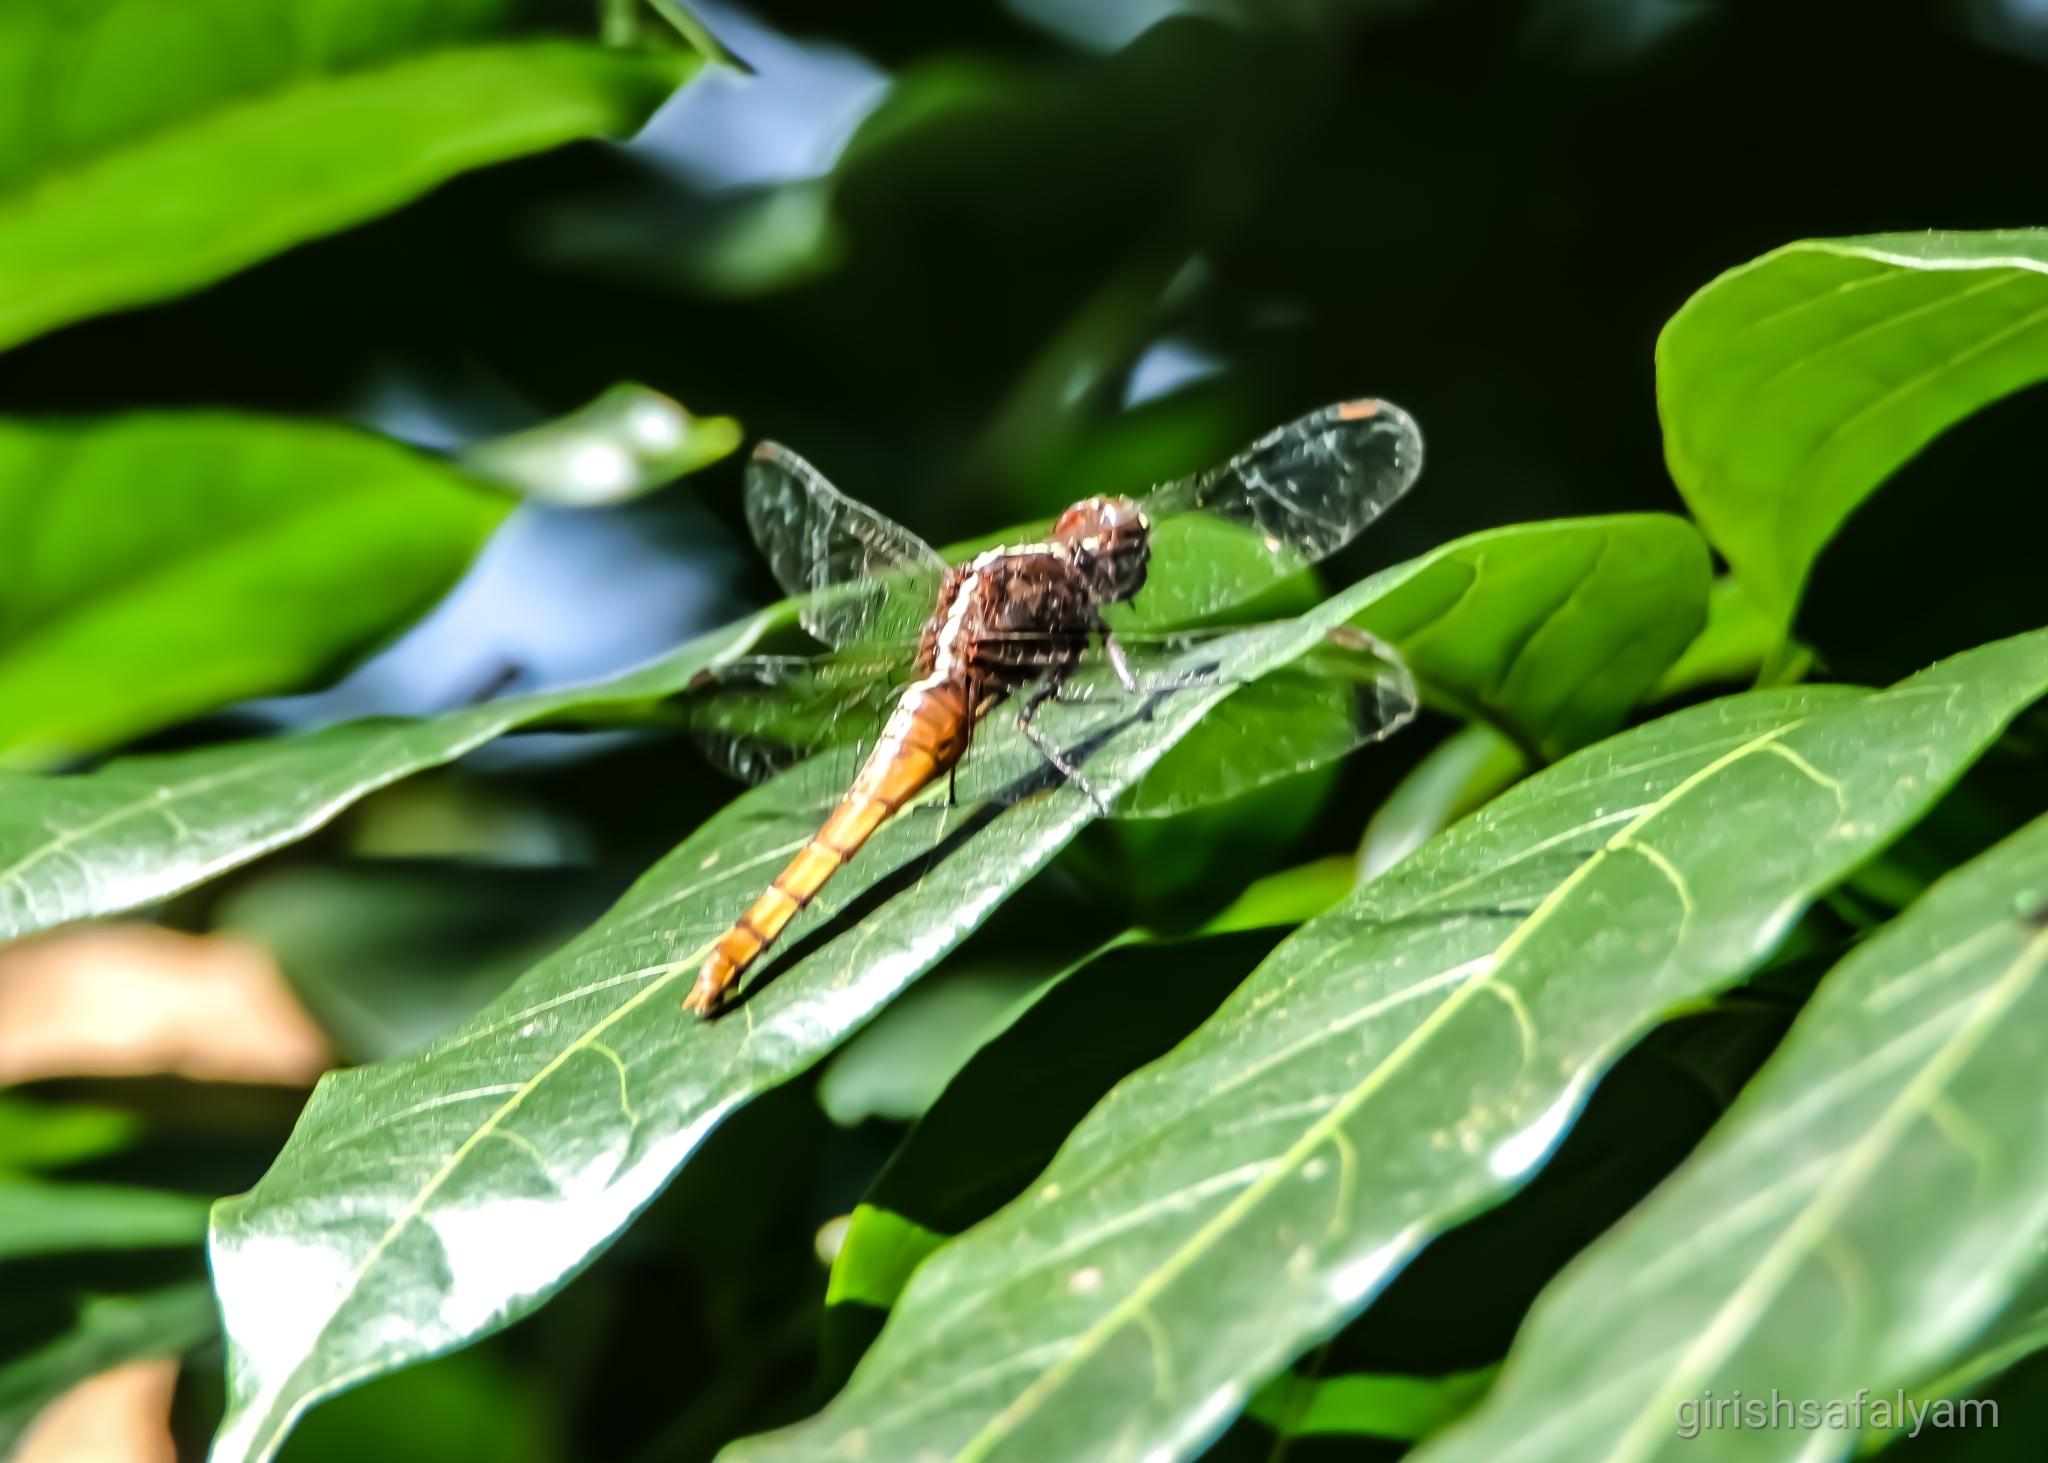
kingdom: Animalia
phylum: Arthropoda
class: Insecta
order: Odonata
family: Libellulidae
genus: Rhodothemis
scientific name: Rhodothemis rufa
